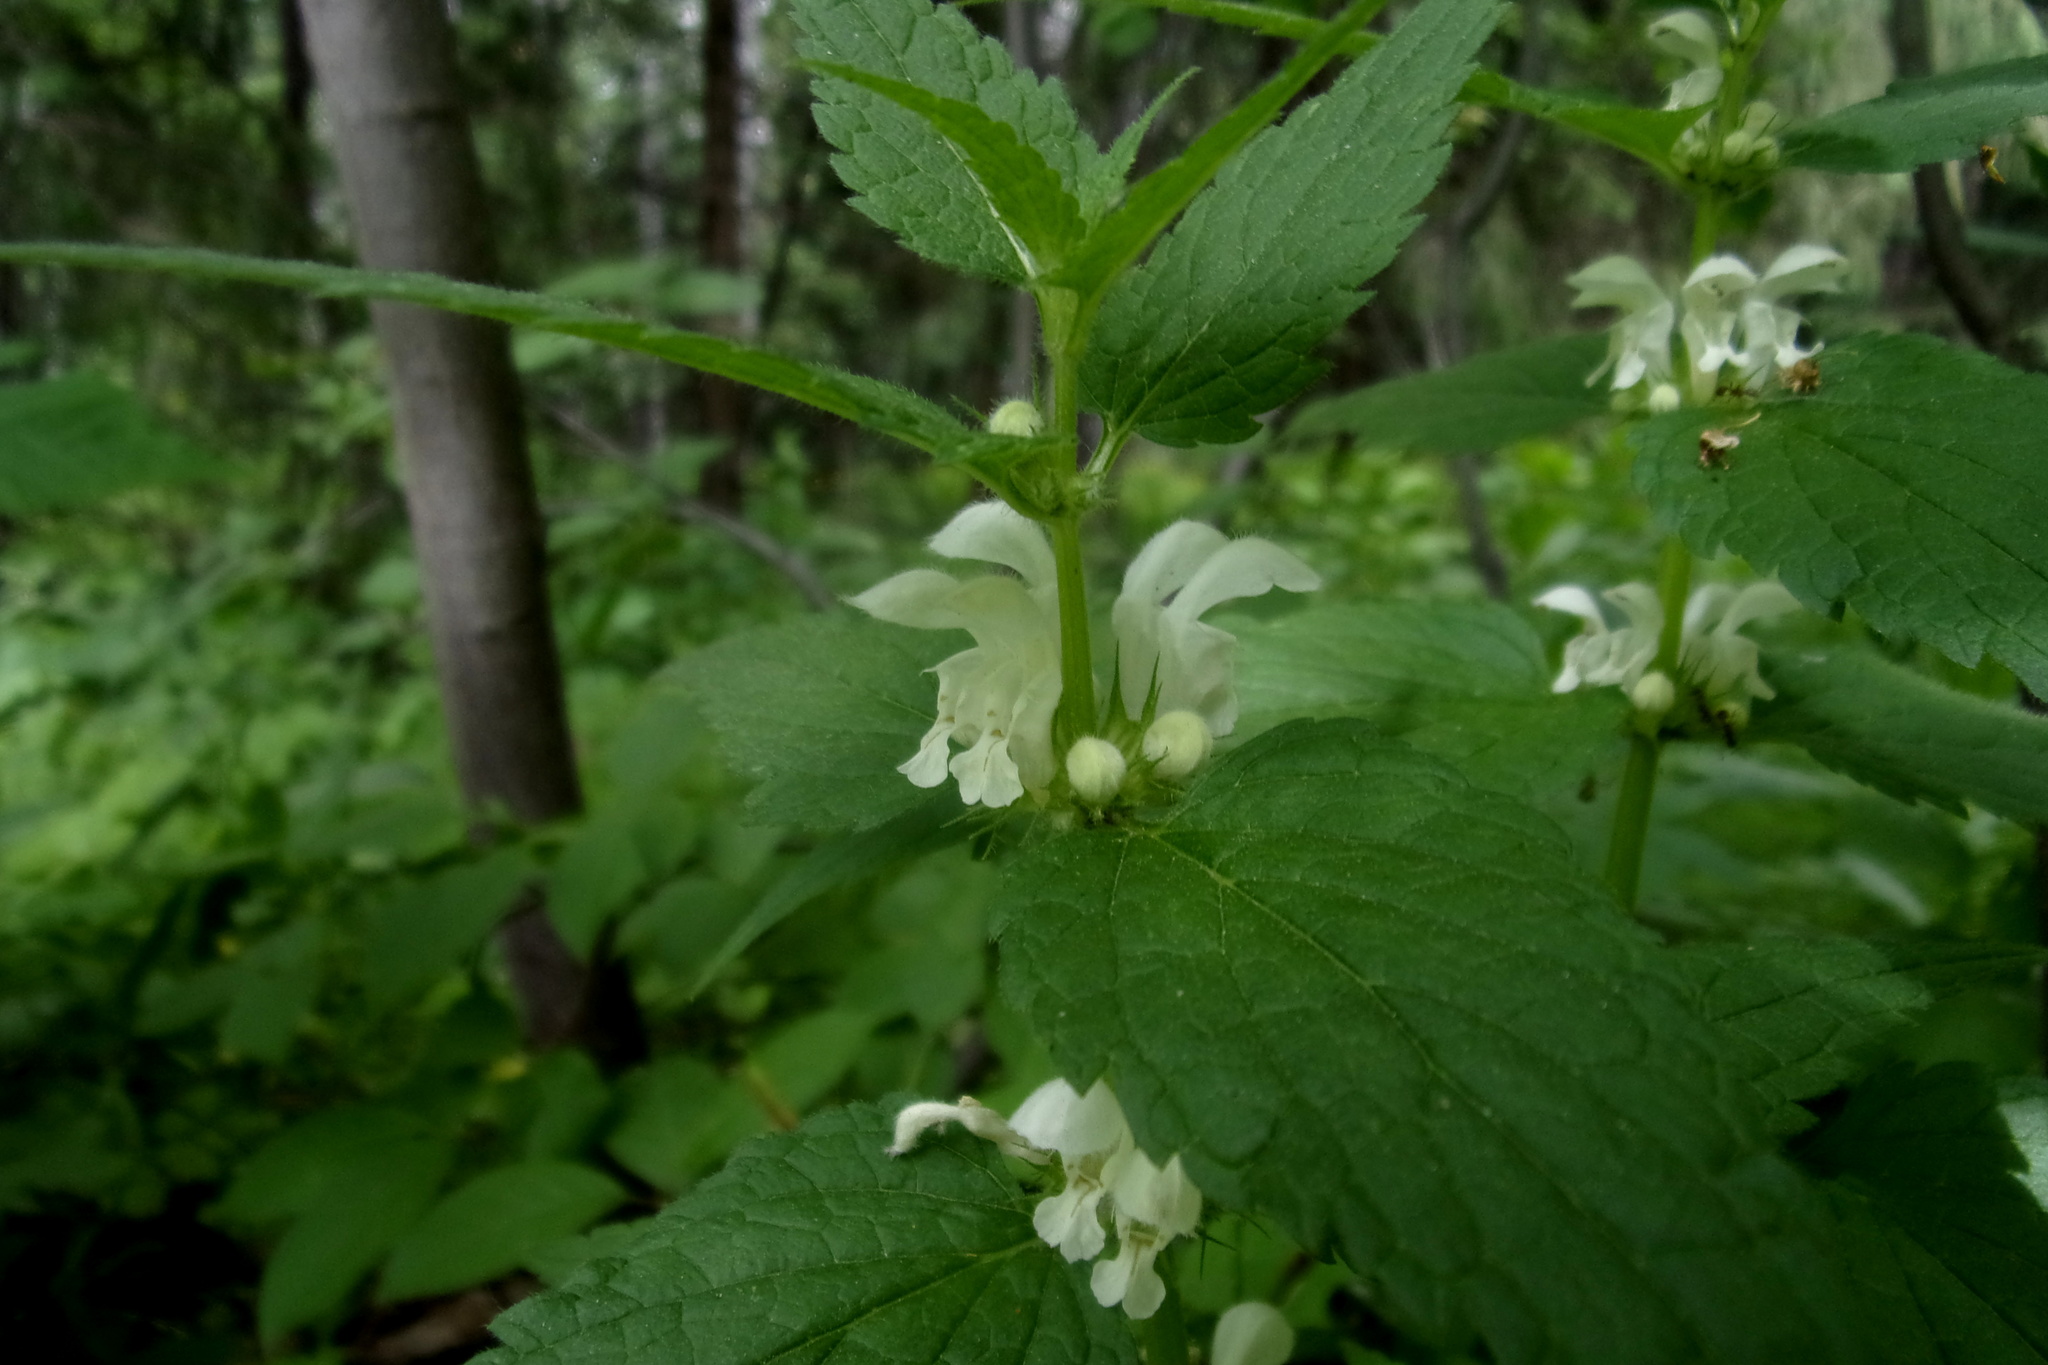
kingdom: Plantae
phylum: Tracheophyta
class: Magnoliopsida
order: Lamiales
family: Lamiaceae
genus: Lamium
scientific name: Lamium album
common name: White dead-nettle
